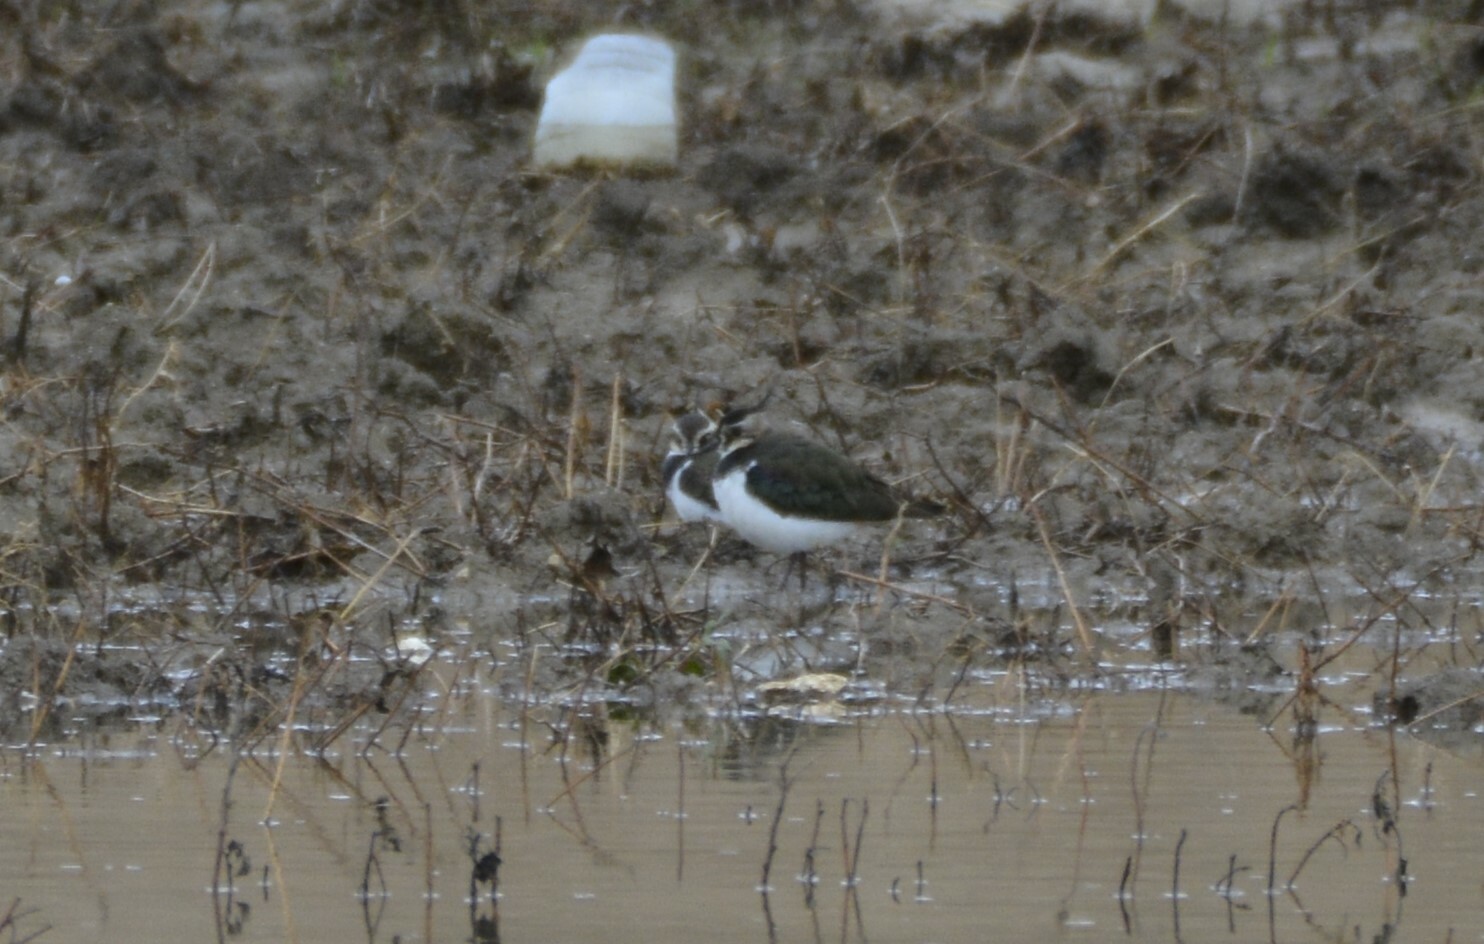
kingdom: Animalia
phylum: Chordata
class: Aves
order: Charadriiformes
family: Charadriidae
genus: Vanellus
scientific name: Vanellus vanellus
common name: Northern lapwing
